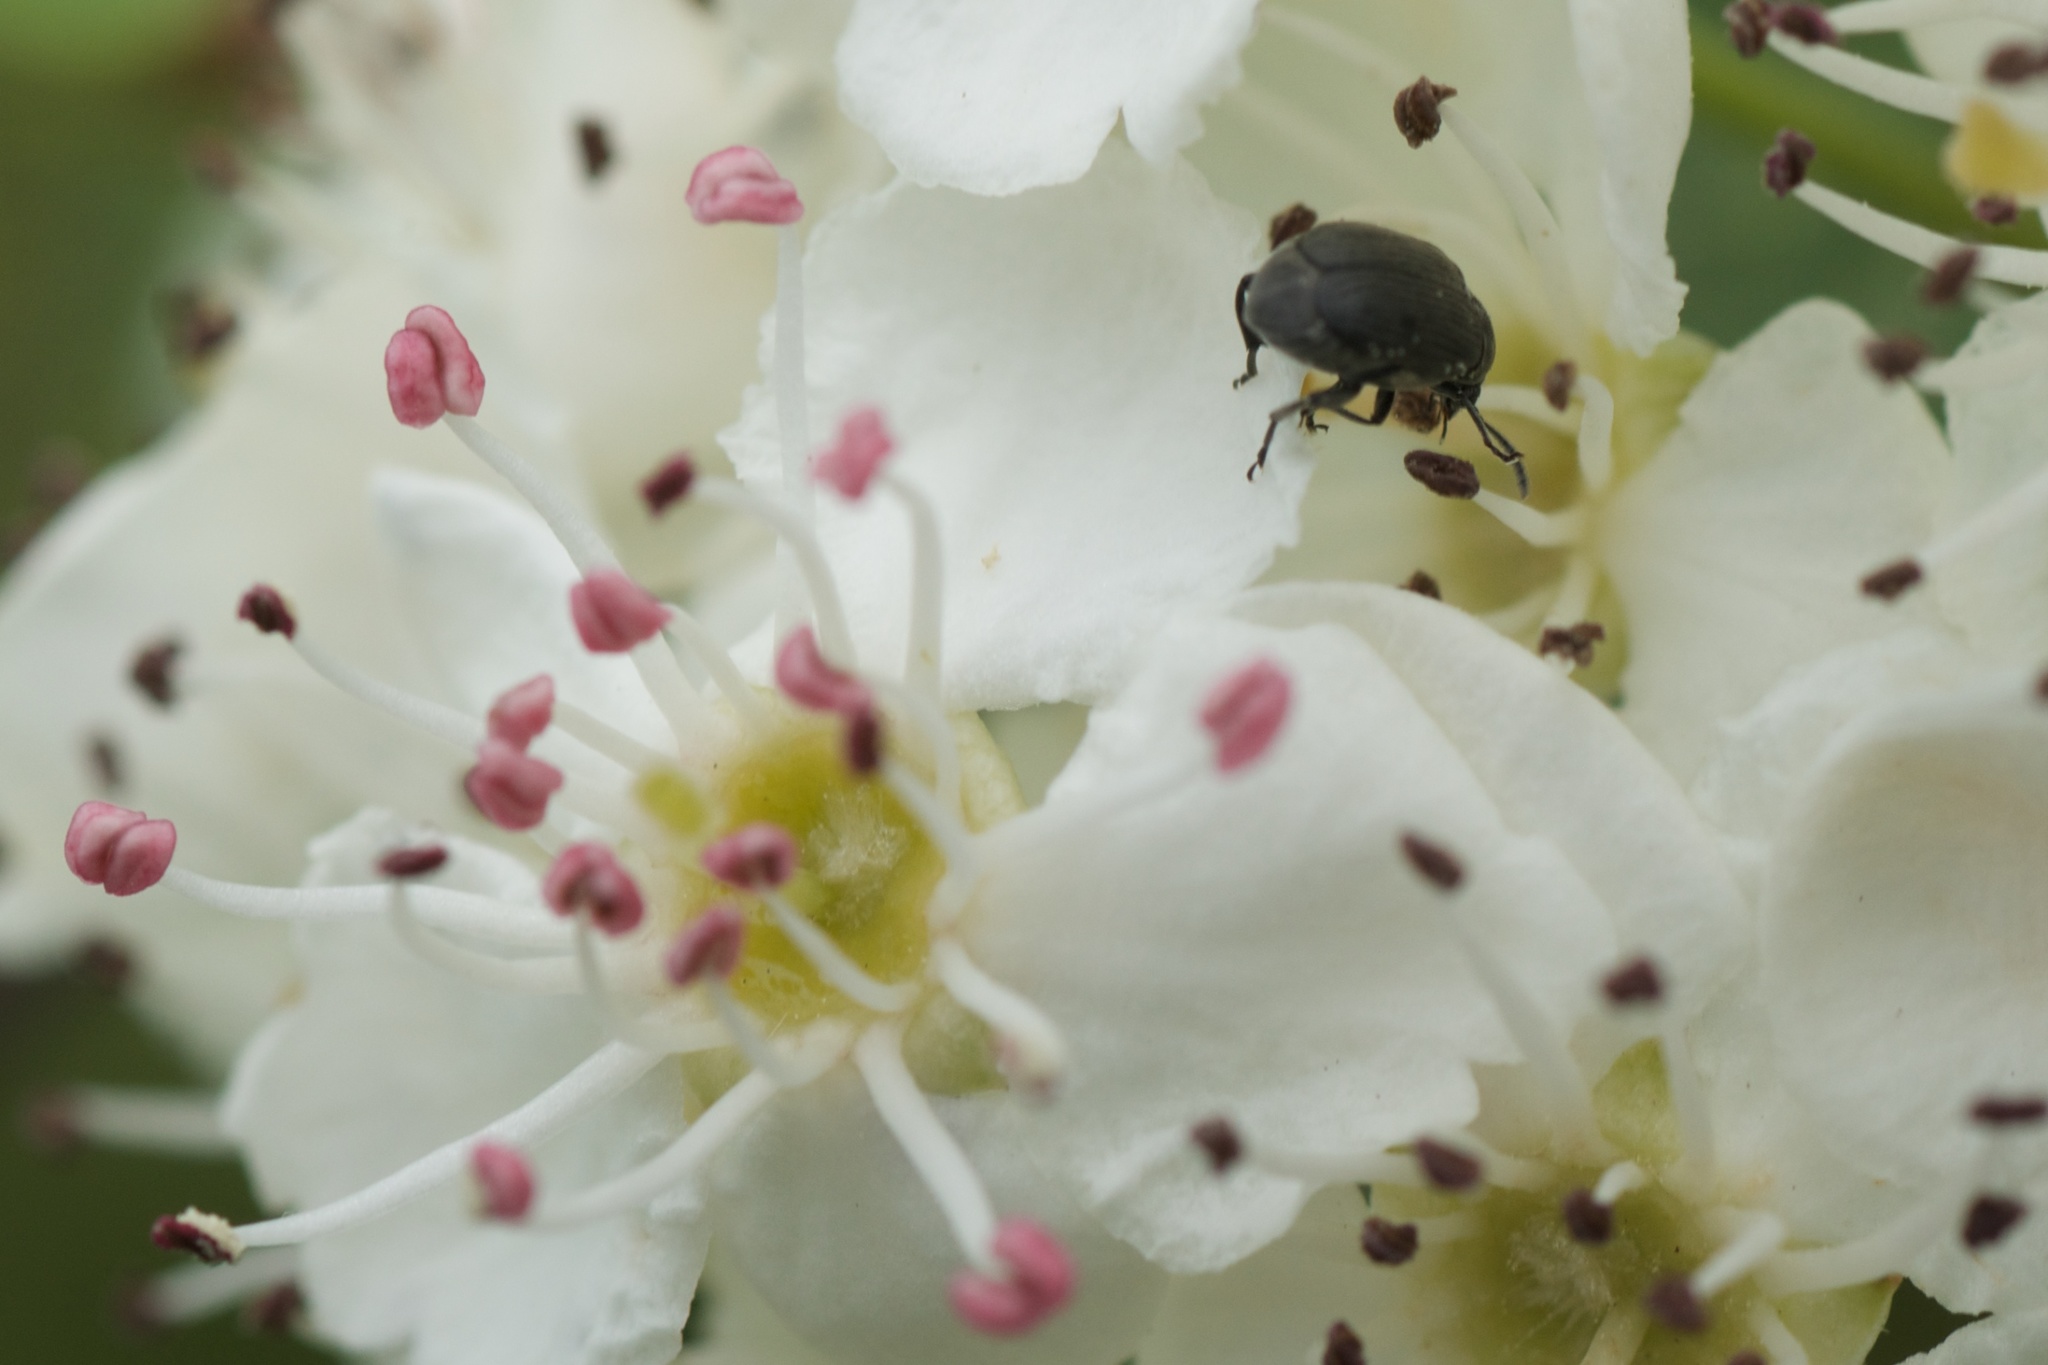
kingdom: Animalia
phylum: Arthropoda
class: Insecta
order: Coleoptera
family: Chrysomelidae
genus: Bruchidius
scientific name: Bruchidius villosus
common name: Scotch broom bruchid
